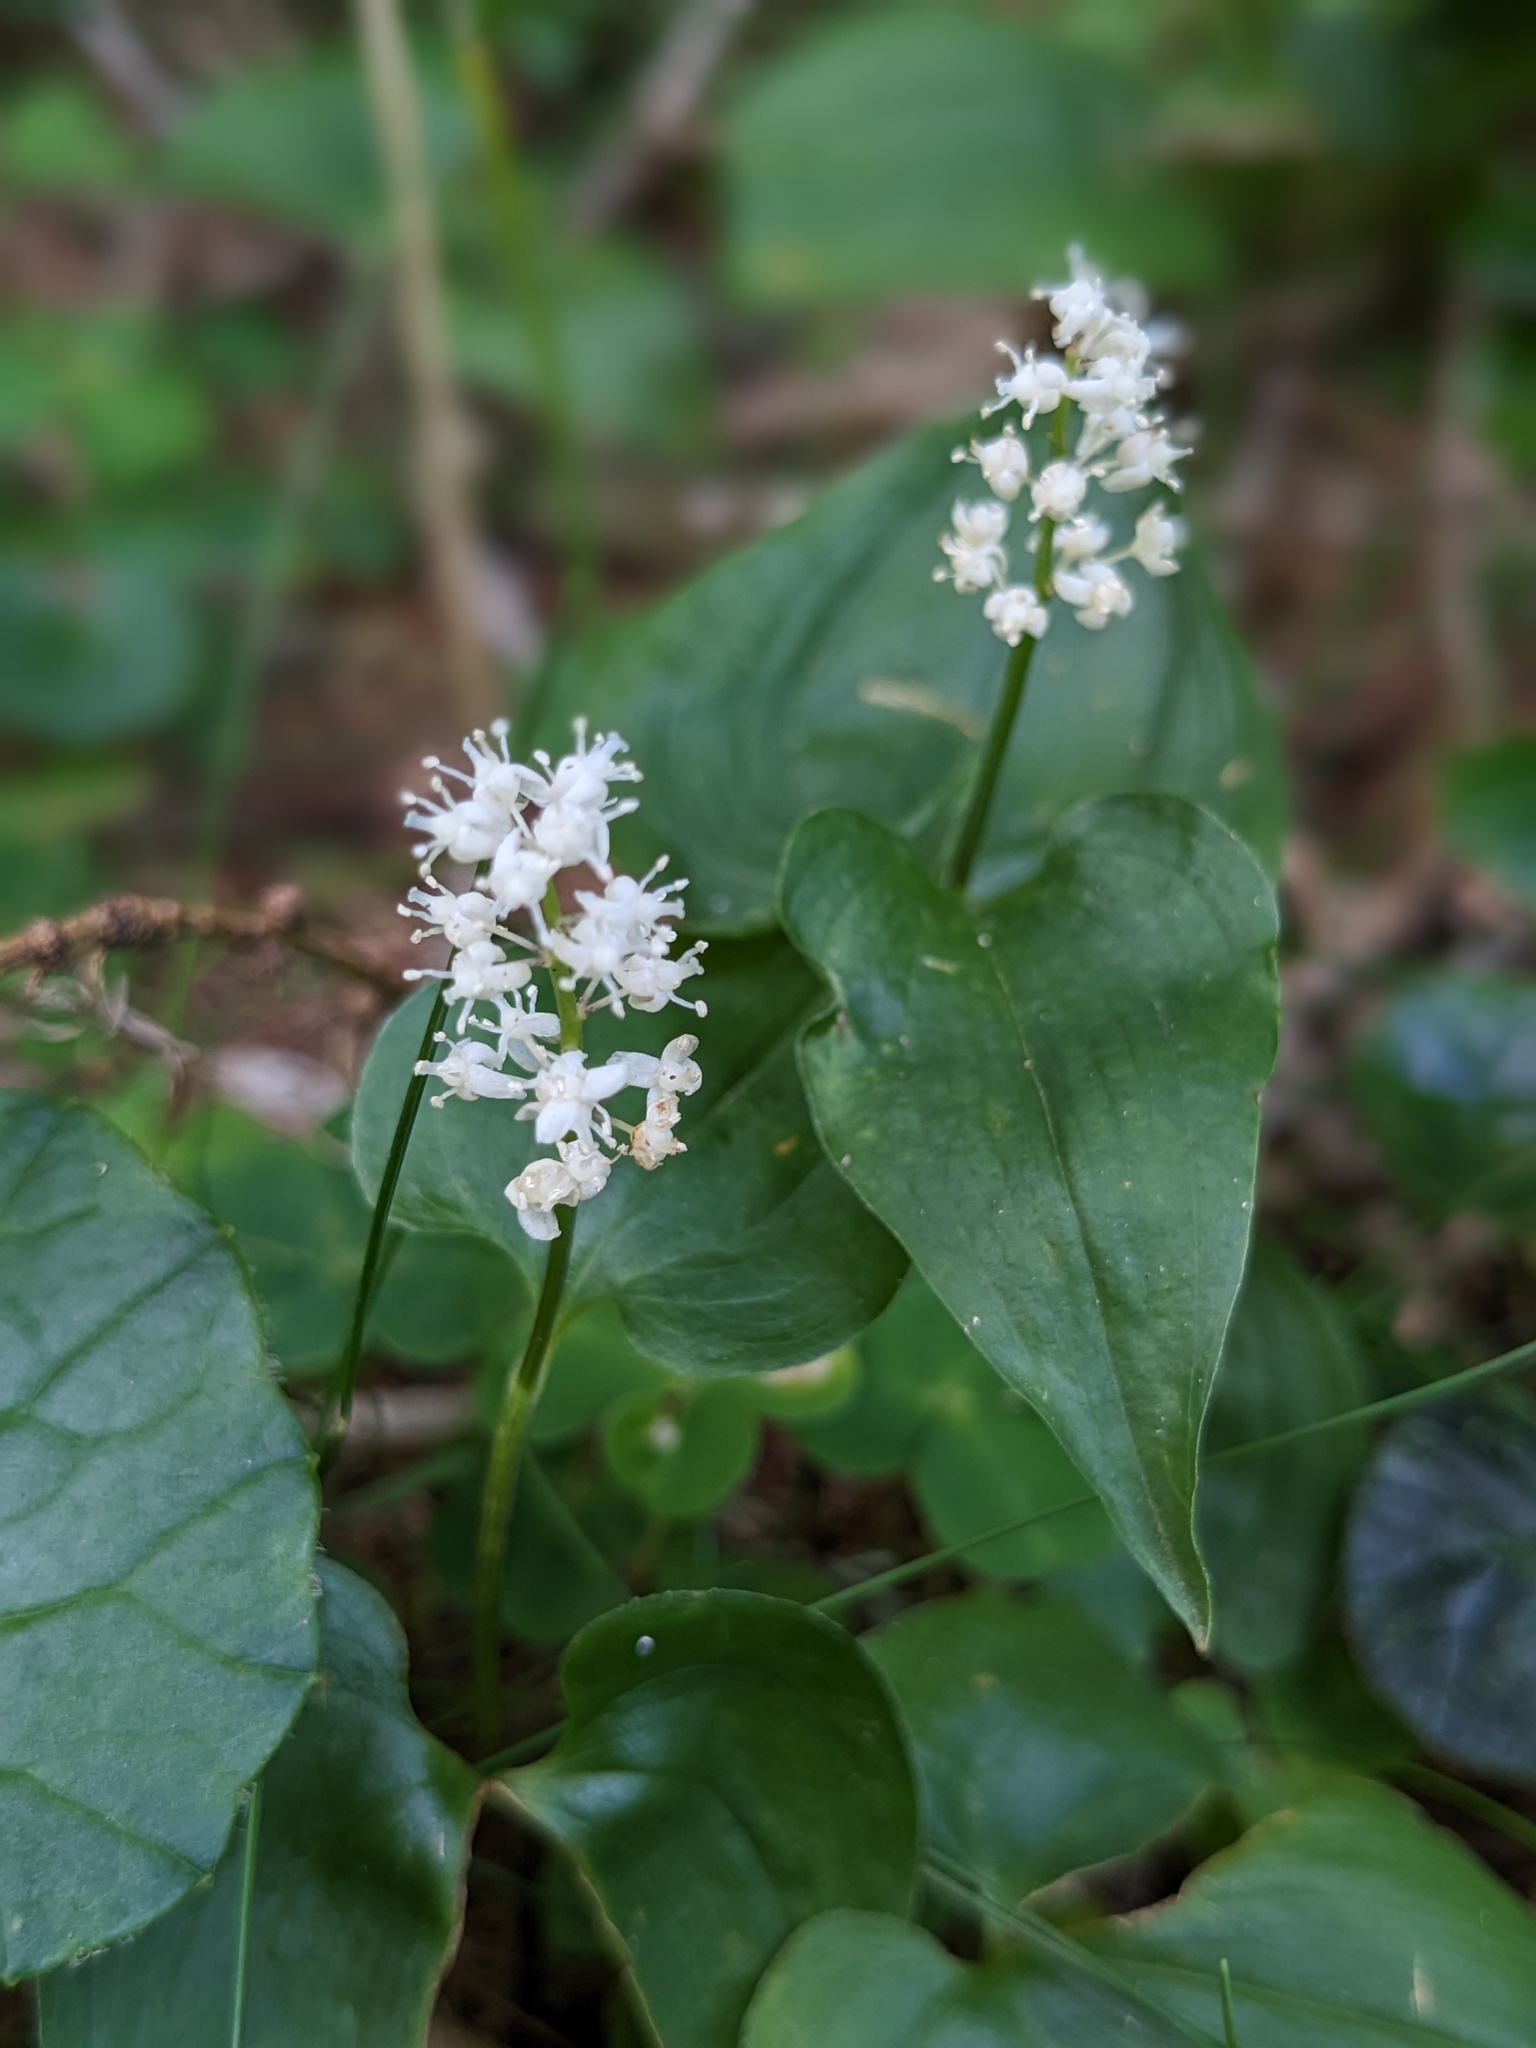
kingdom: Plantae
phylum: Tracheophyta
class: Liliopsida
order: Asparagales
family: Asparagaceae
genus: Maianthemum
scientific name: Maianthemum bifolium
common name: May lily
